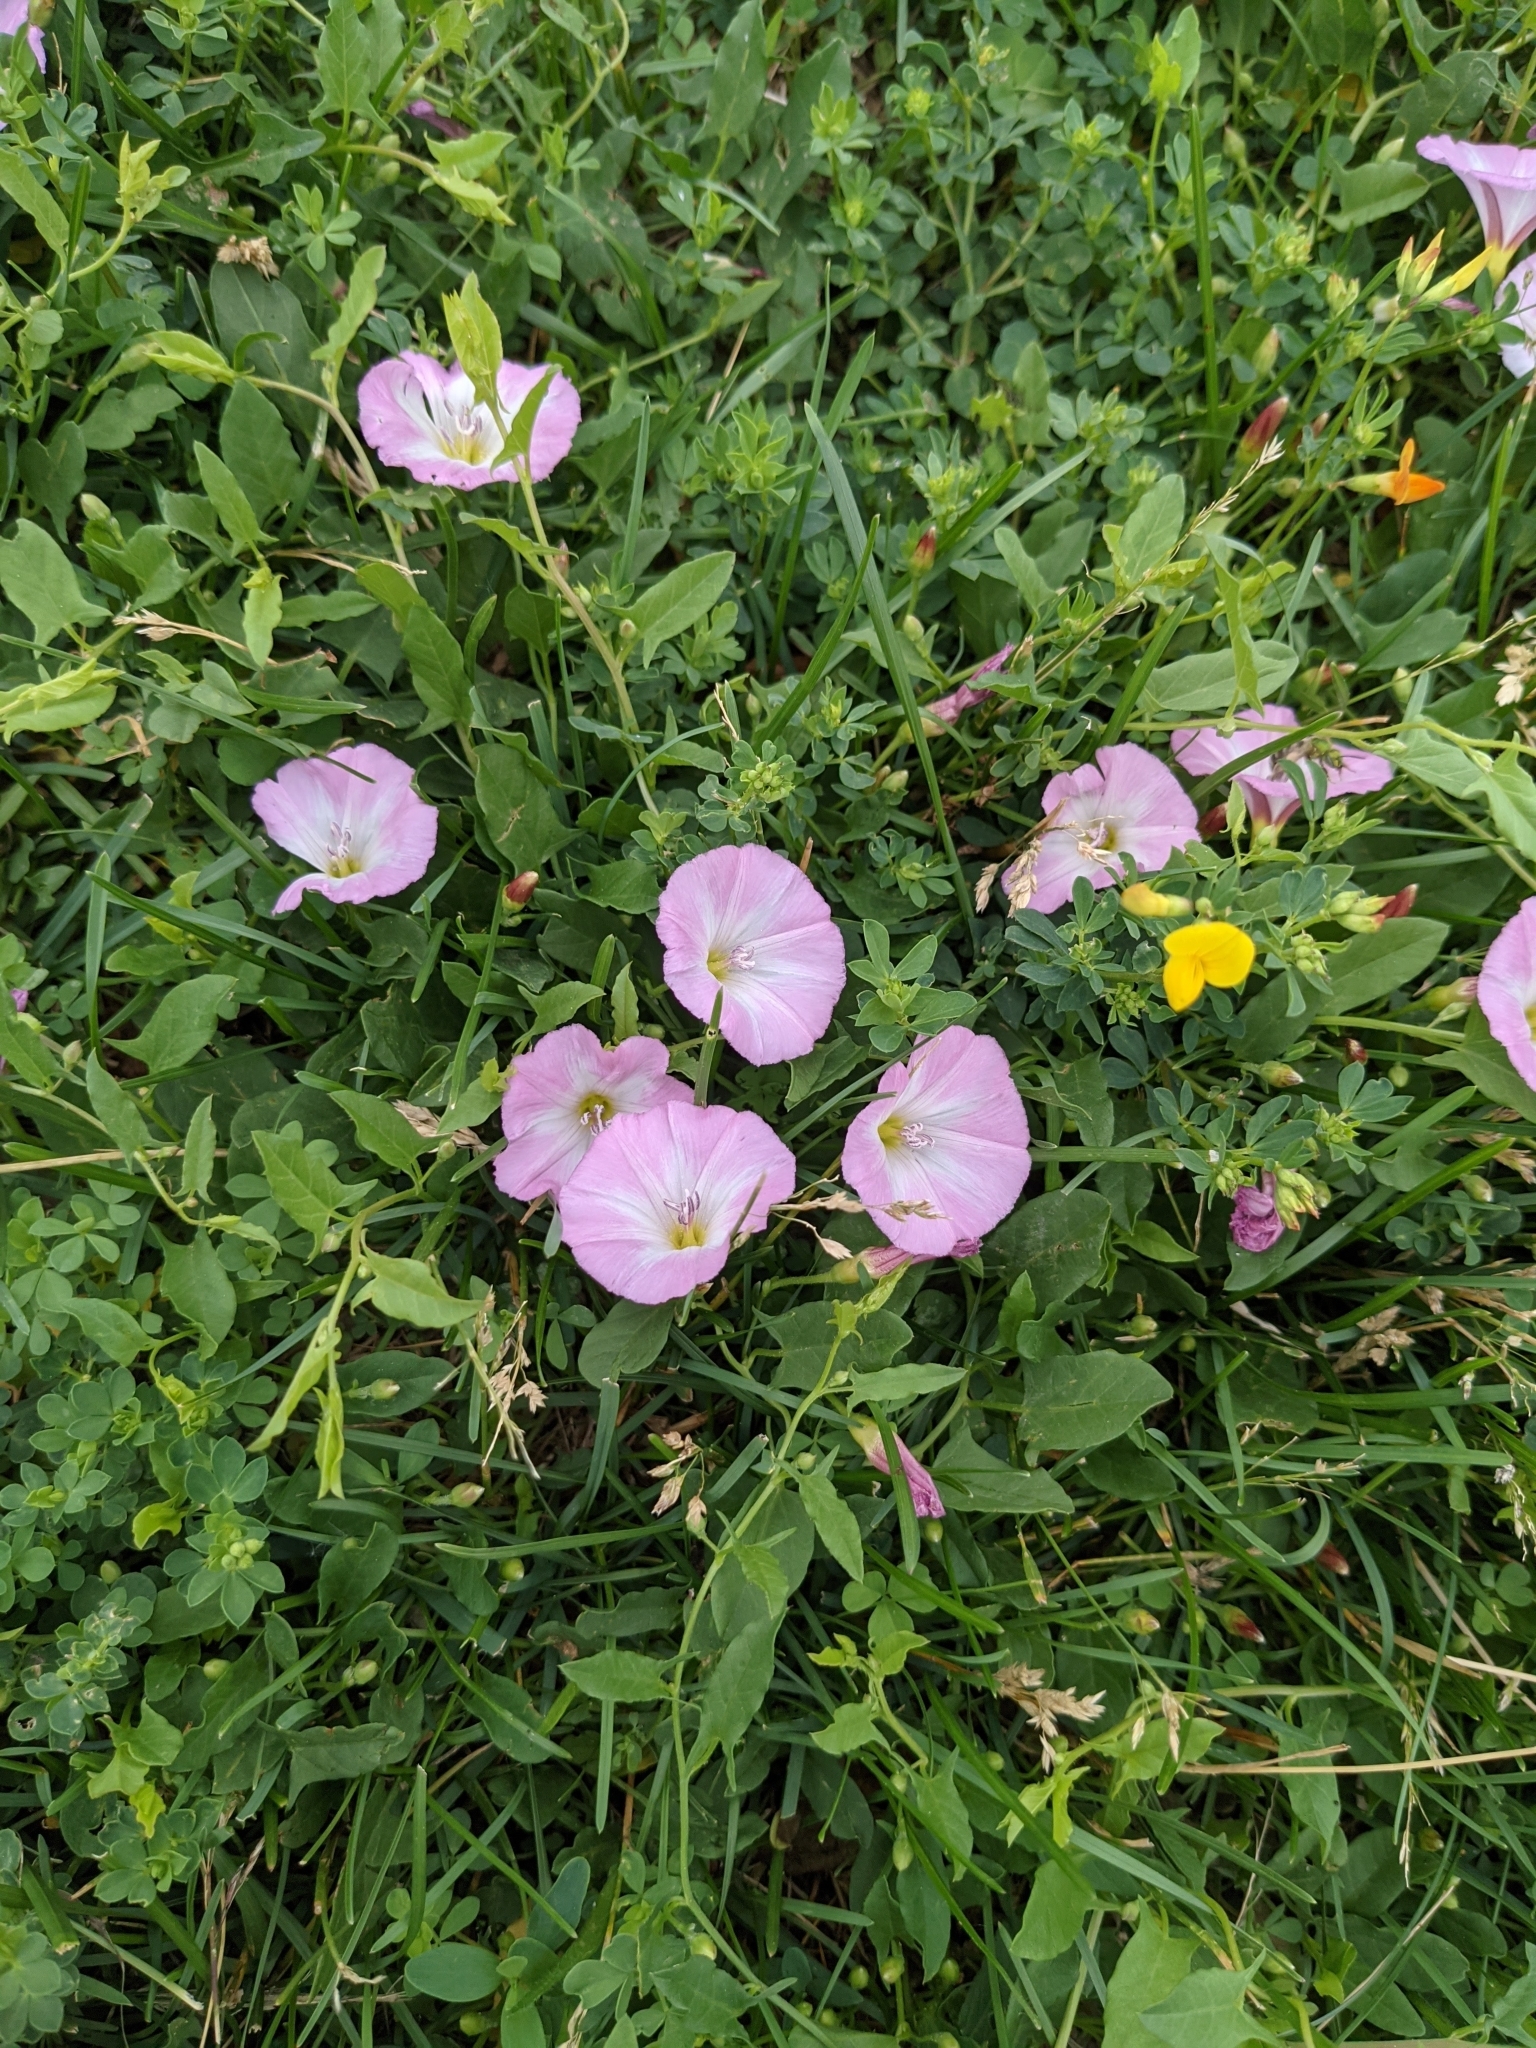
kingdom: Plantae
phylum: Tracheophyta
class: Magnoliopsida
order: Solanales
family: Convolvulaceae
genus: Convolvulus
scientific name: Convolvulus arvensis
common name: Field bindweed
